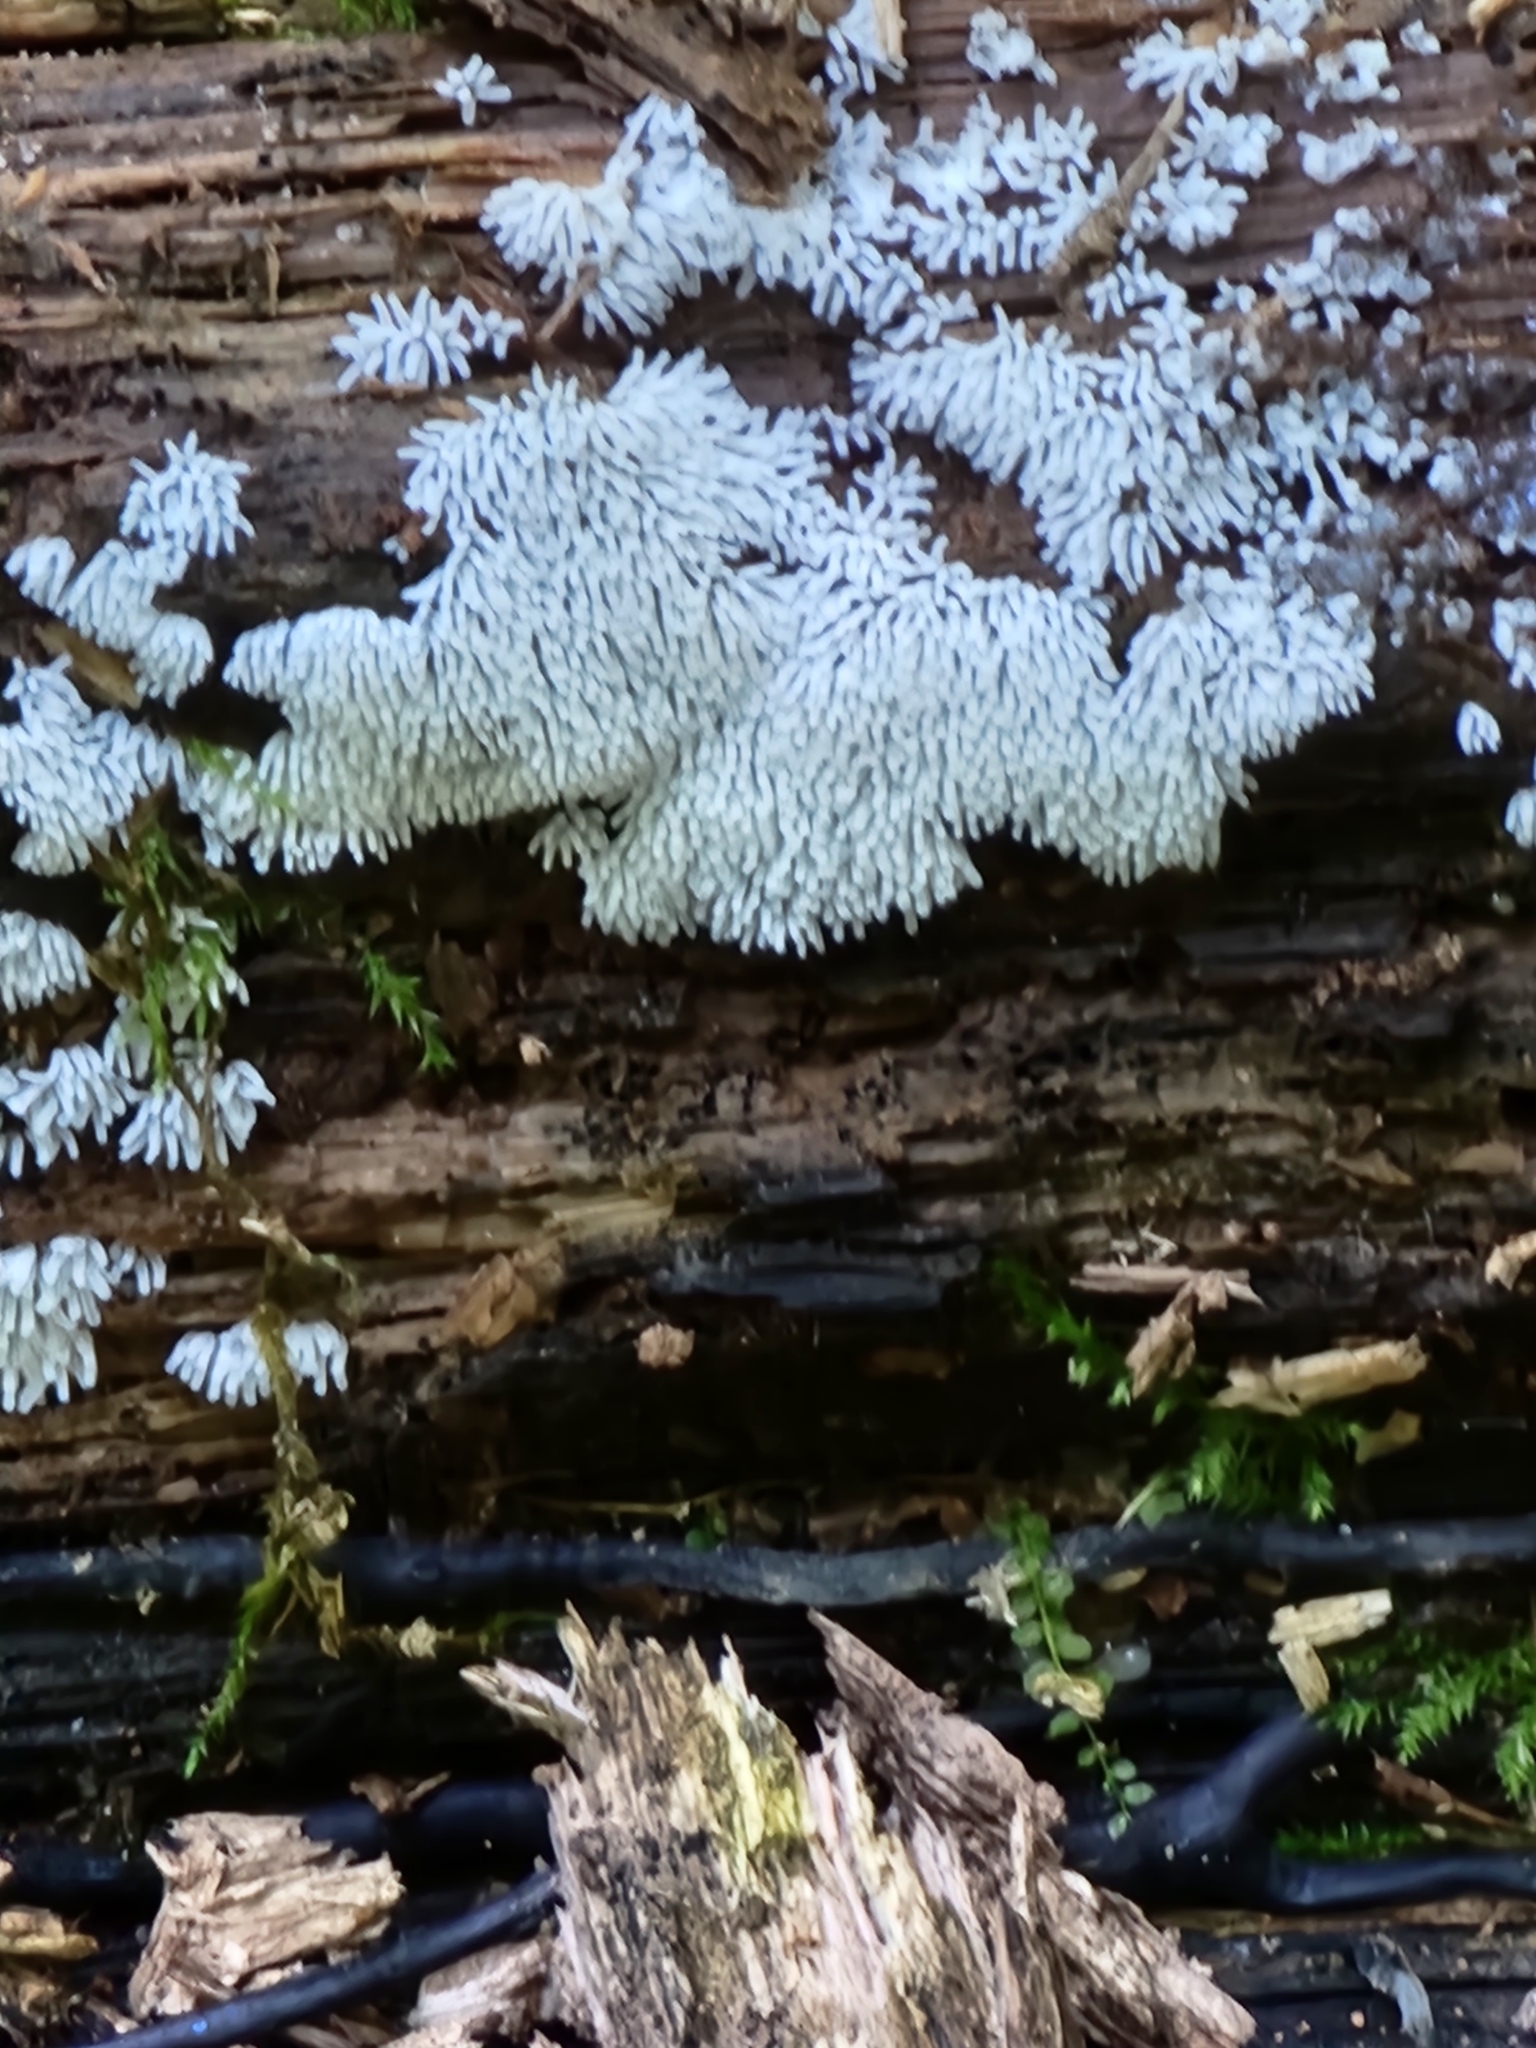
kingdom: Protozoa
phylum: Mycetozoa
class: Protosteliomycetes
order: Ceratiomyxales
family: Ceratiomyxaceae
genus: Ceratiomyxa
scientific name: Ceratiomyxa fruticulosa
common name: Honeycomb coral slime mold
